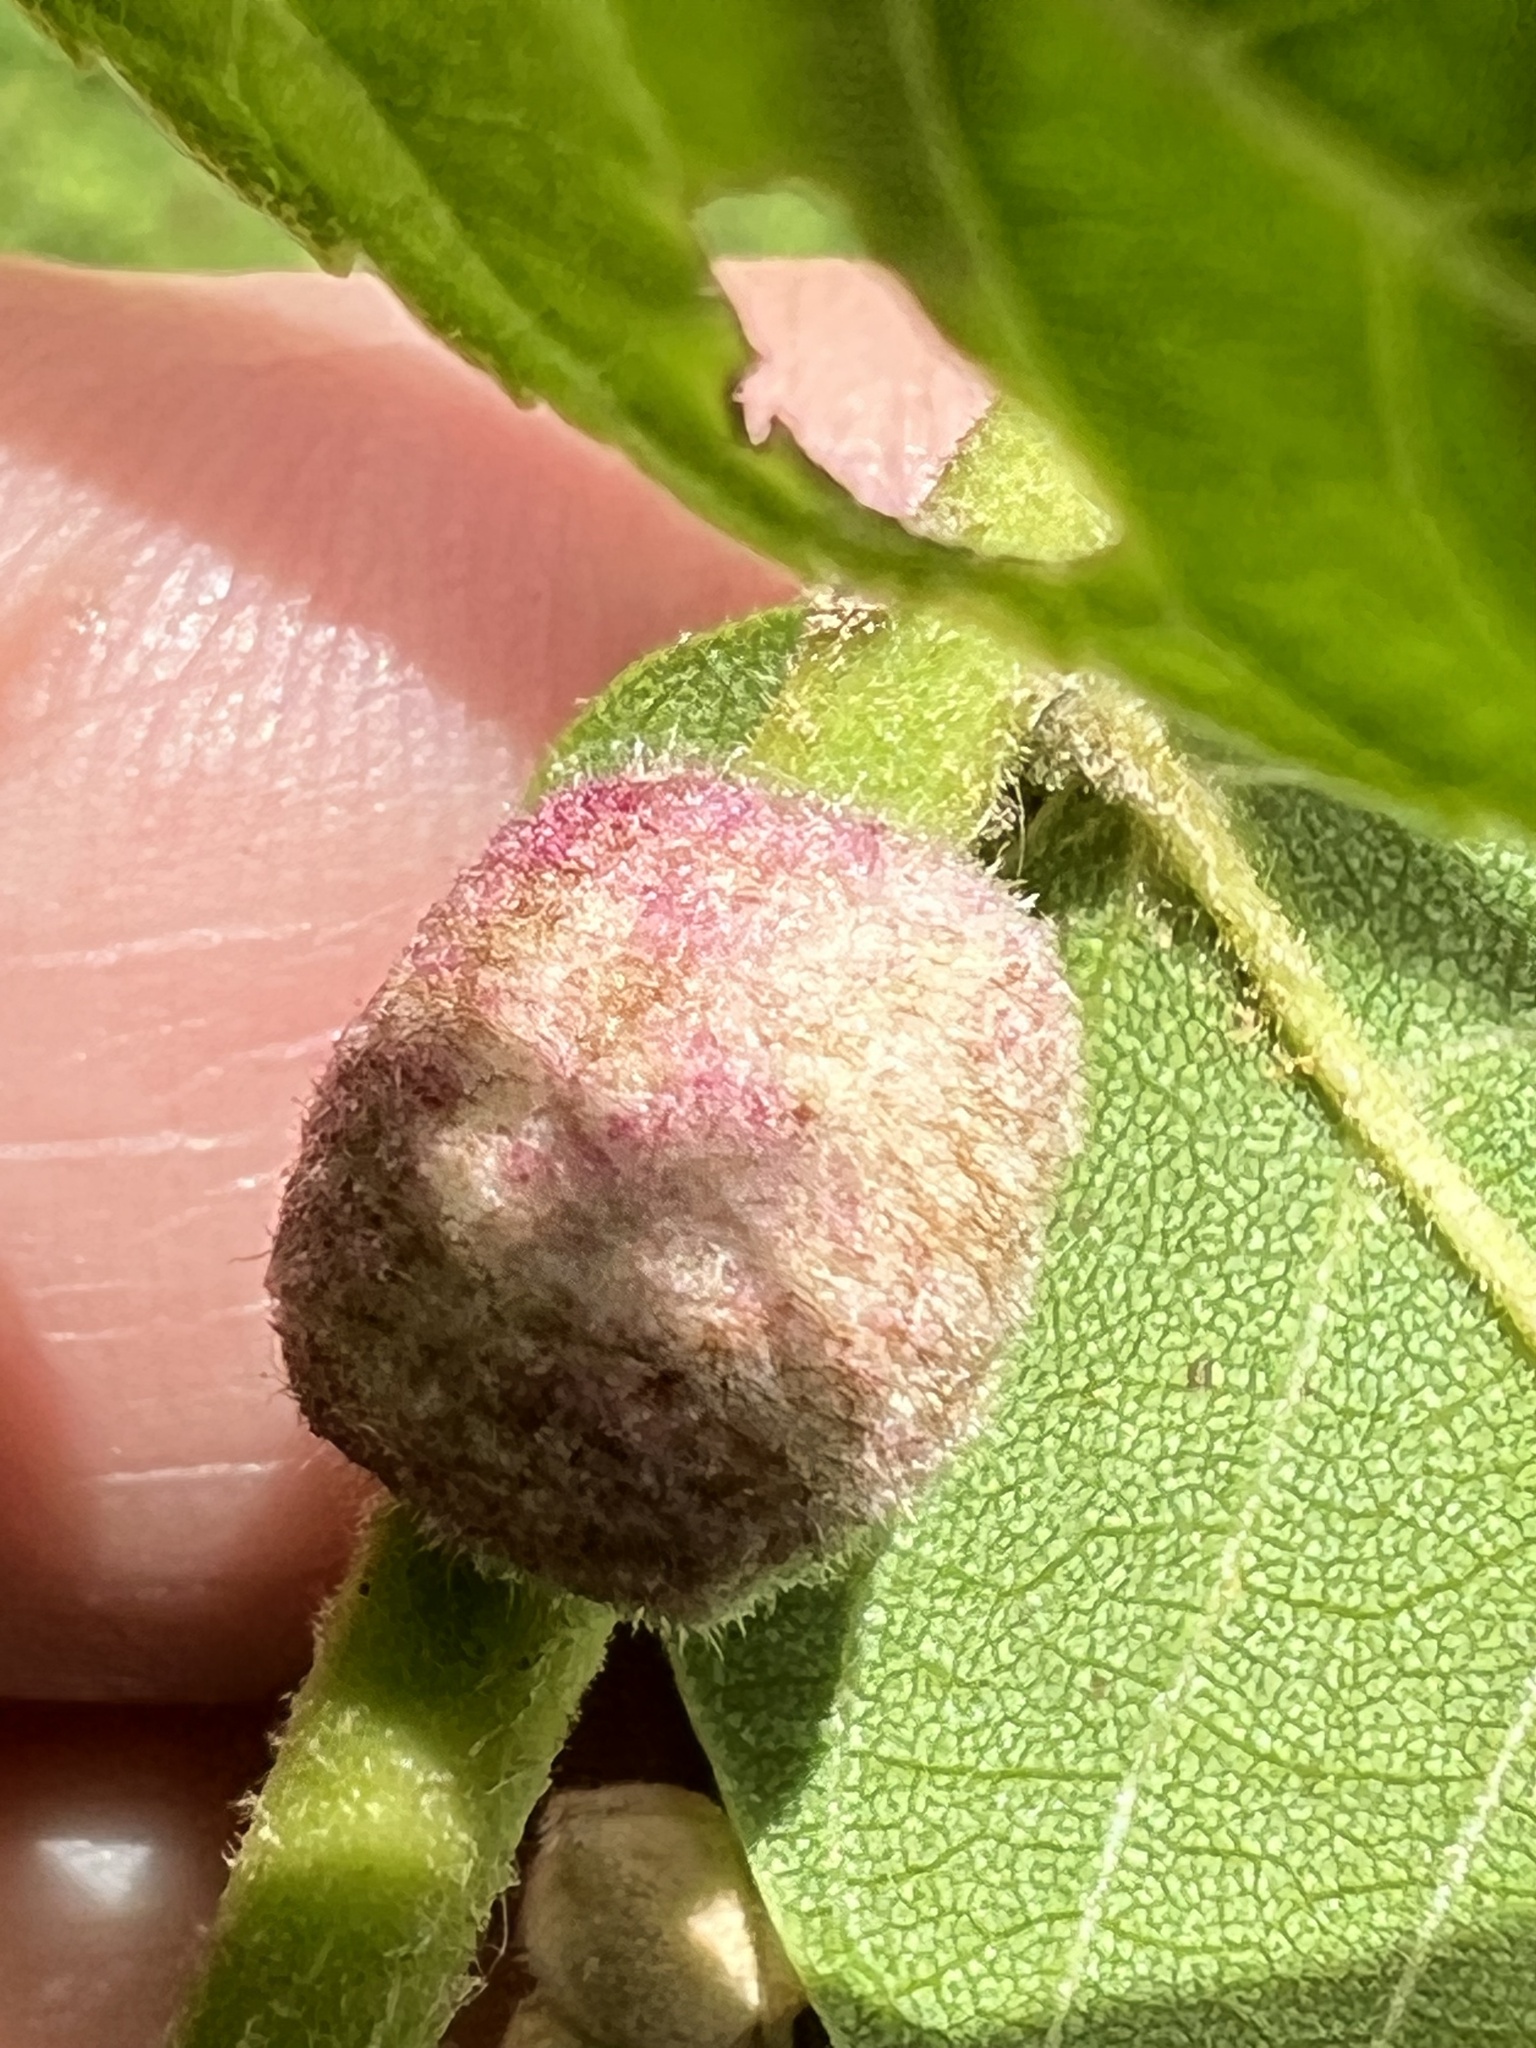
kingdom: Animalia
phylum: Arthropoda
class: Arachnida
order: Trombidiformes
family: Eriophyidae
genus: Aceria
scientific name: Aceria
